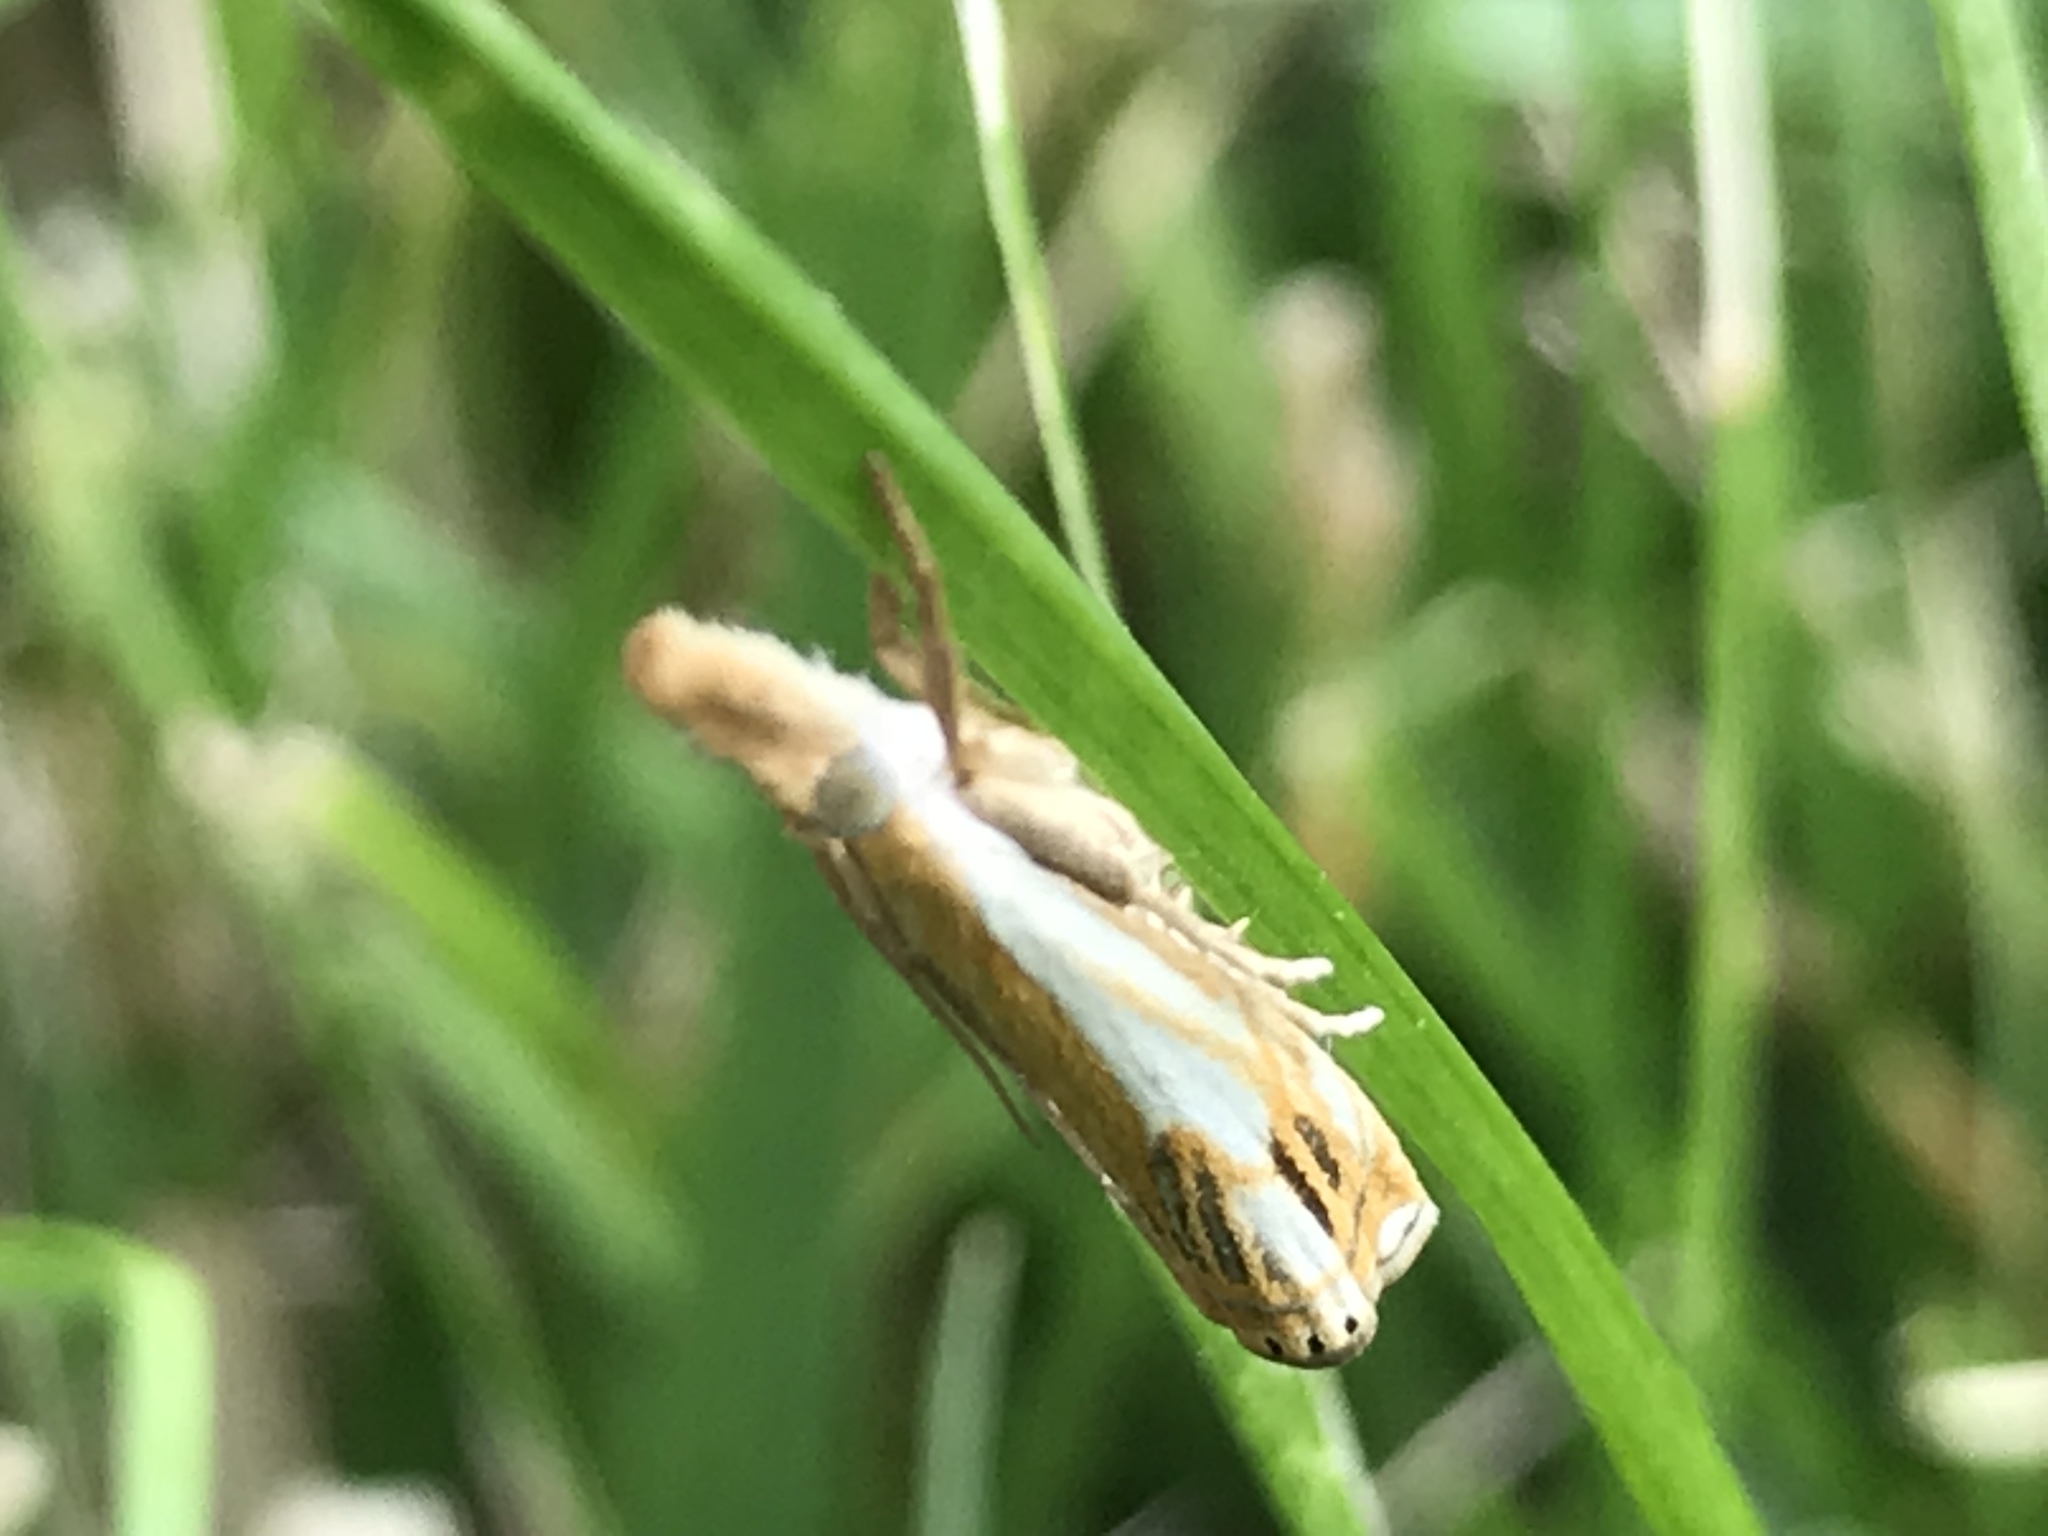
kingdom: Animalia
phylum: Arthropoda
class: Insecta
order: Lepidoptera
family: Crambidae
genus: Crambus
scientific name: Crambus agitatellus
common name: Double-banded grass-veneer
